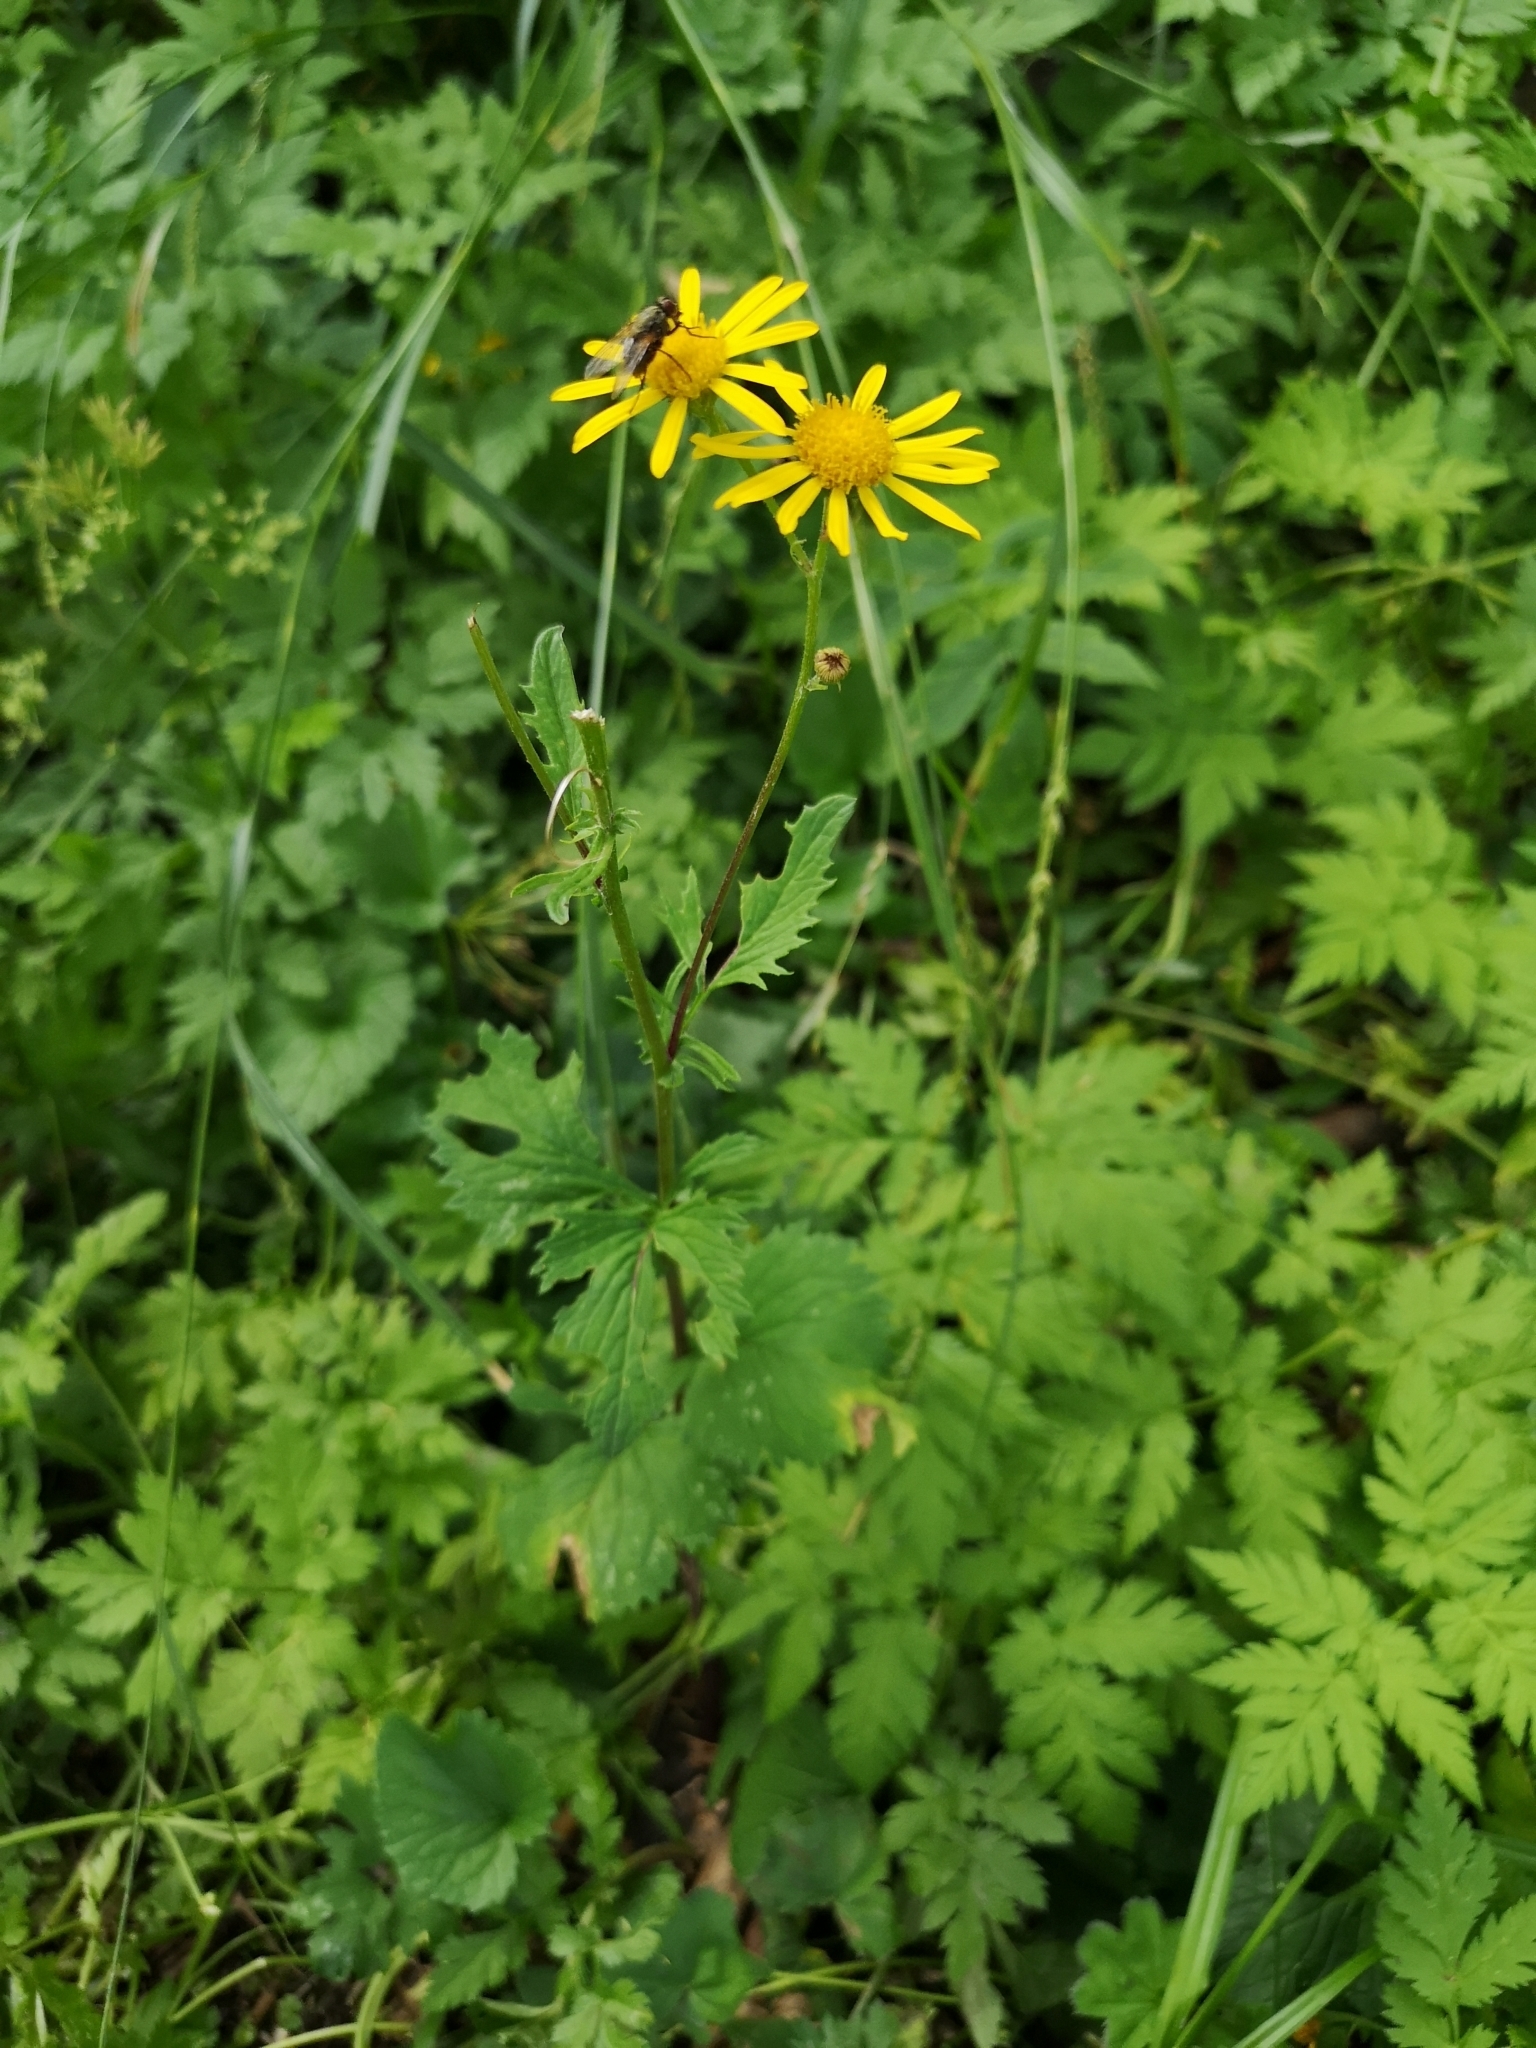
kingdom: Plantae
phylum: Tracheophyta
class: Magnoliopsida
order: Asterales
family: Asteraceae
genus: Jacobaea
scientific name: Jacobaea subalpina
